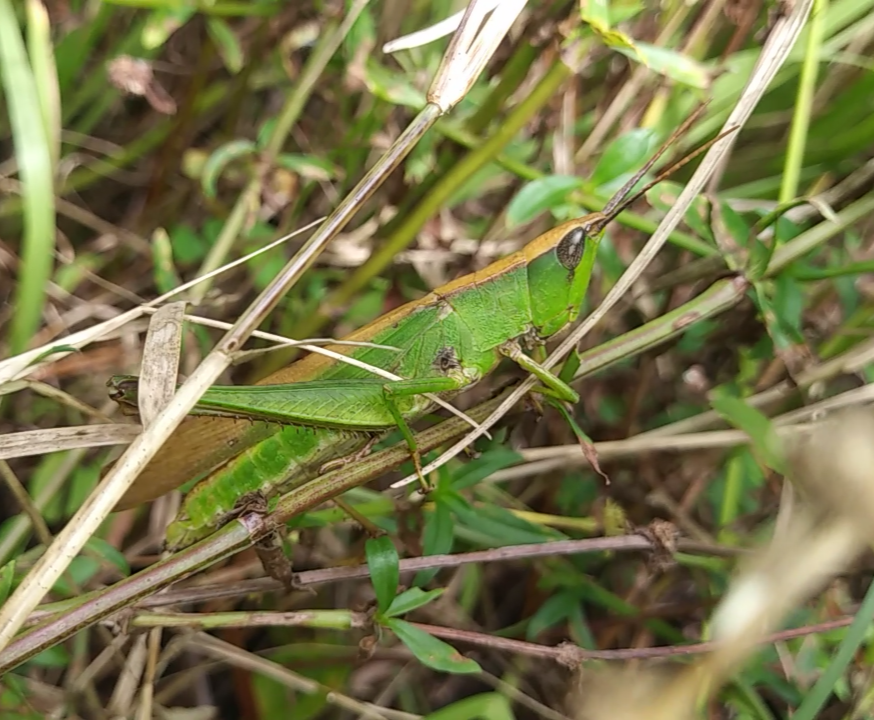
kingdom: Animalia
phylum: Arthropoda
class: Insecta
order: Orthoptera
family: Acrididae
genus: Metaleptea
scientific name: Metaleptea brevicornis
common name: Clipped-wing grasshopper
